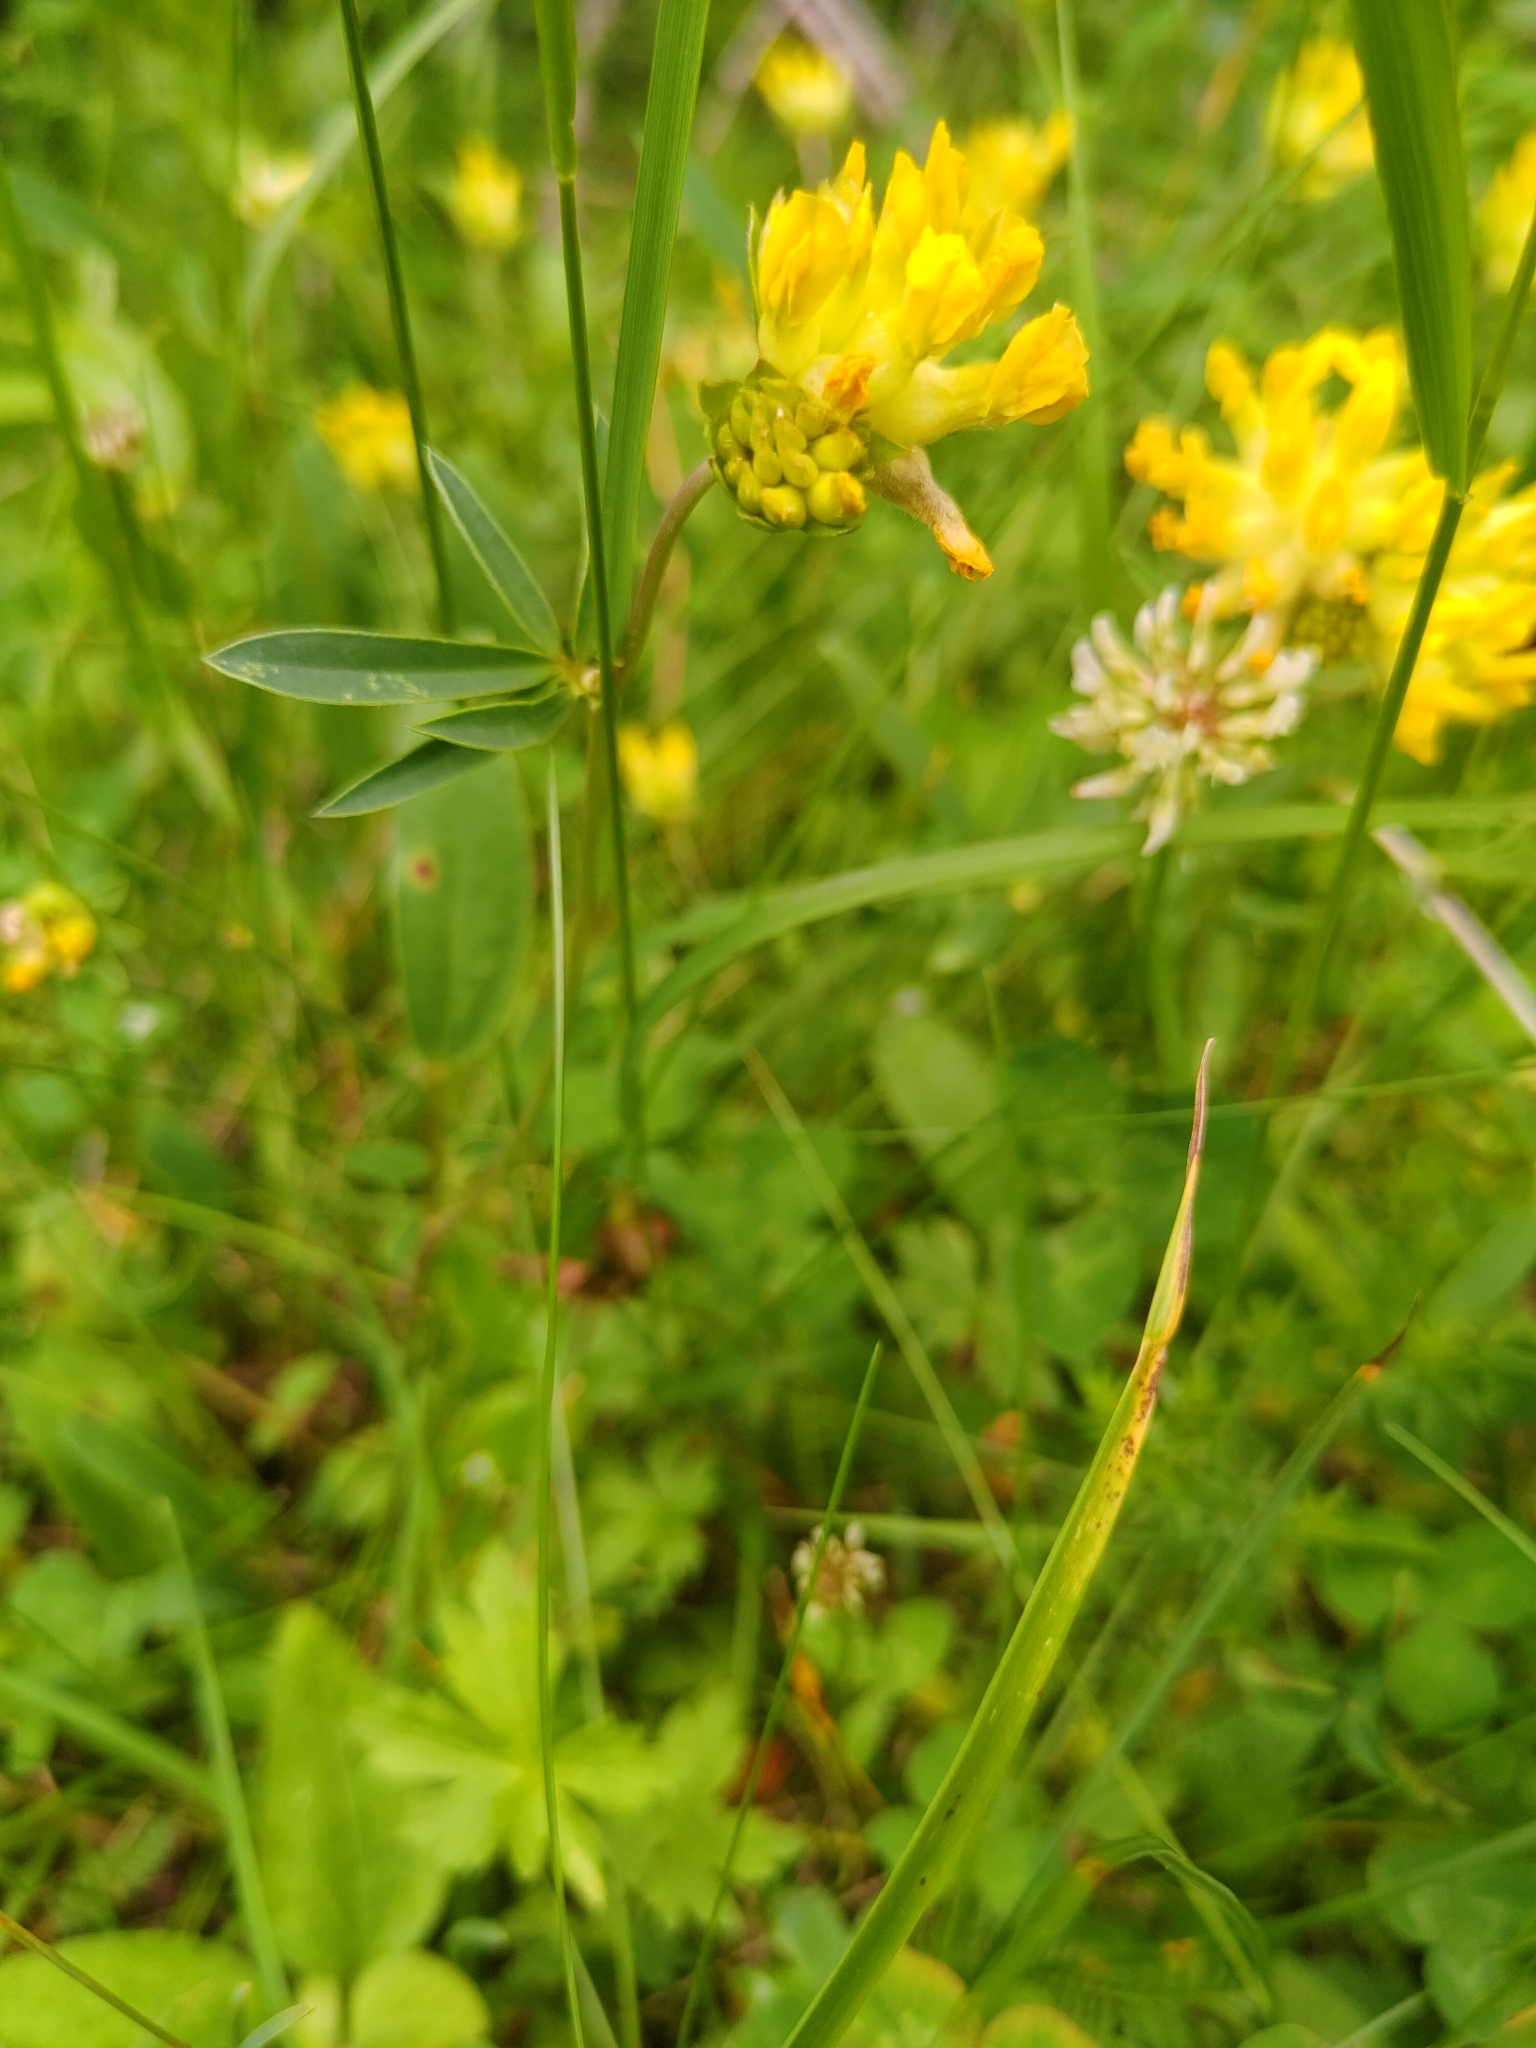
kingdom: Plantae
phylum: Tracheophyta
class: Magnoliopsida
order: Fabales
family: Fabaceae
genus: Anthyllis
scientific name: Anthyllis vulneraria
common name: Kidney vetch
